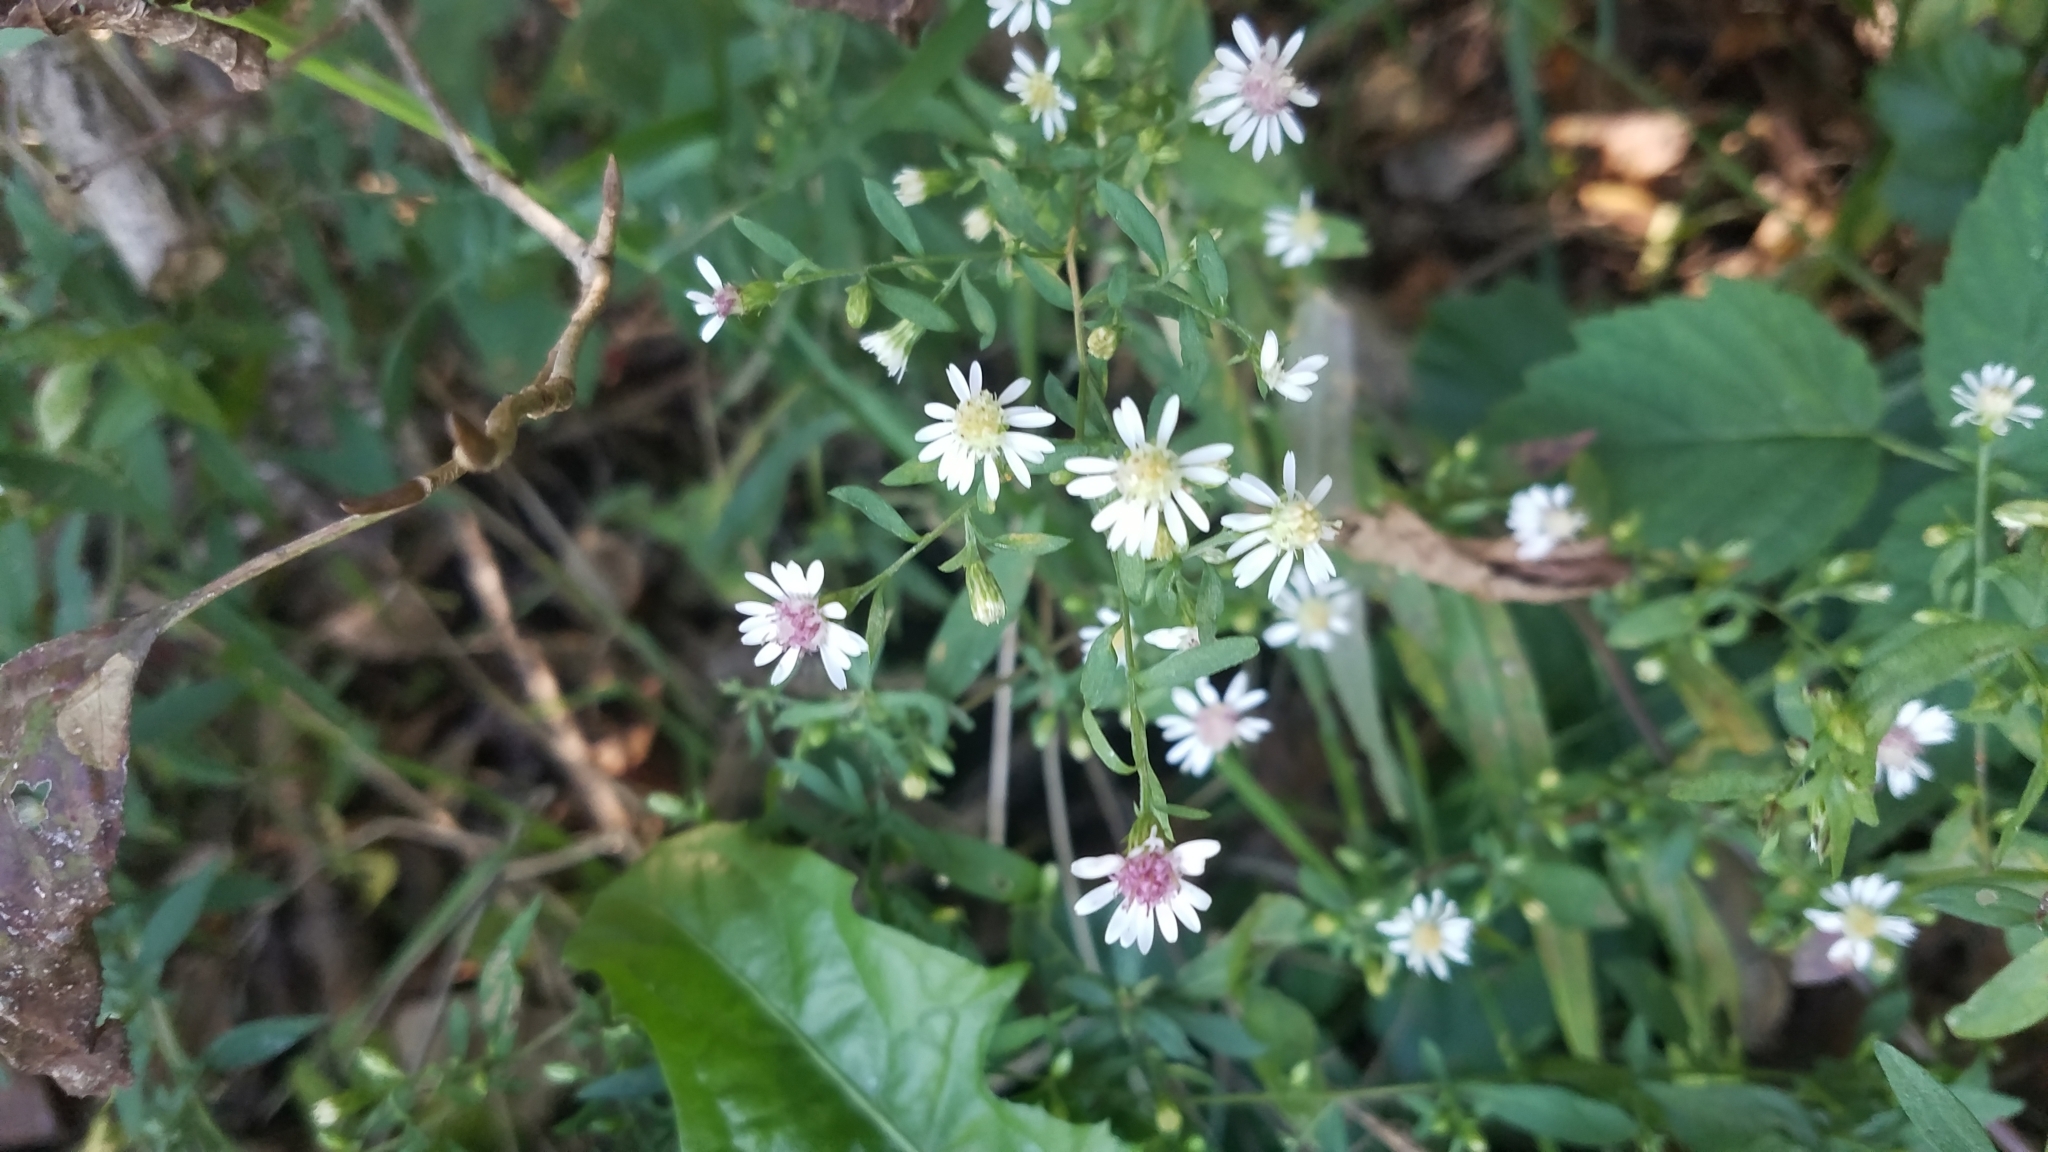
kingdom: Plantae
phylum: Tracheophyta
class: Magnoliopsida
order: Asterales
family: Asteraceae
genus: Symphyotrichum
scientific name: Symphyotrichum lateriflorum
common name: Calico aster
